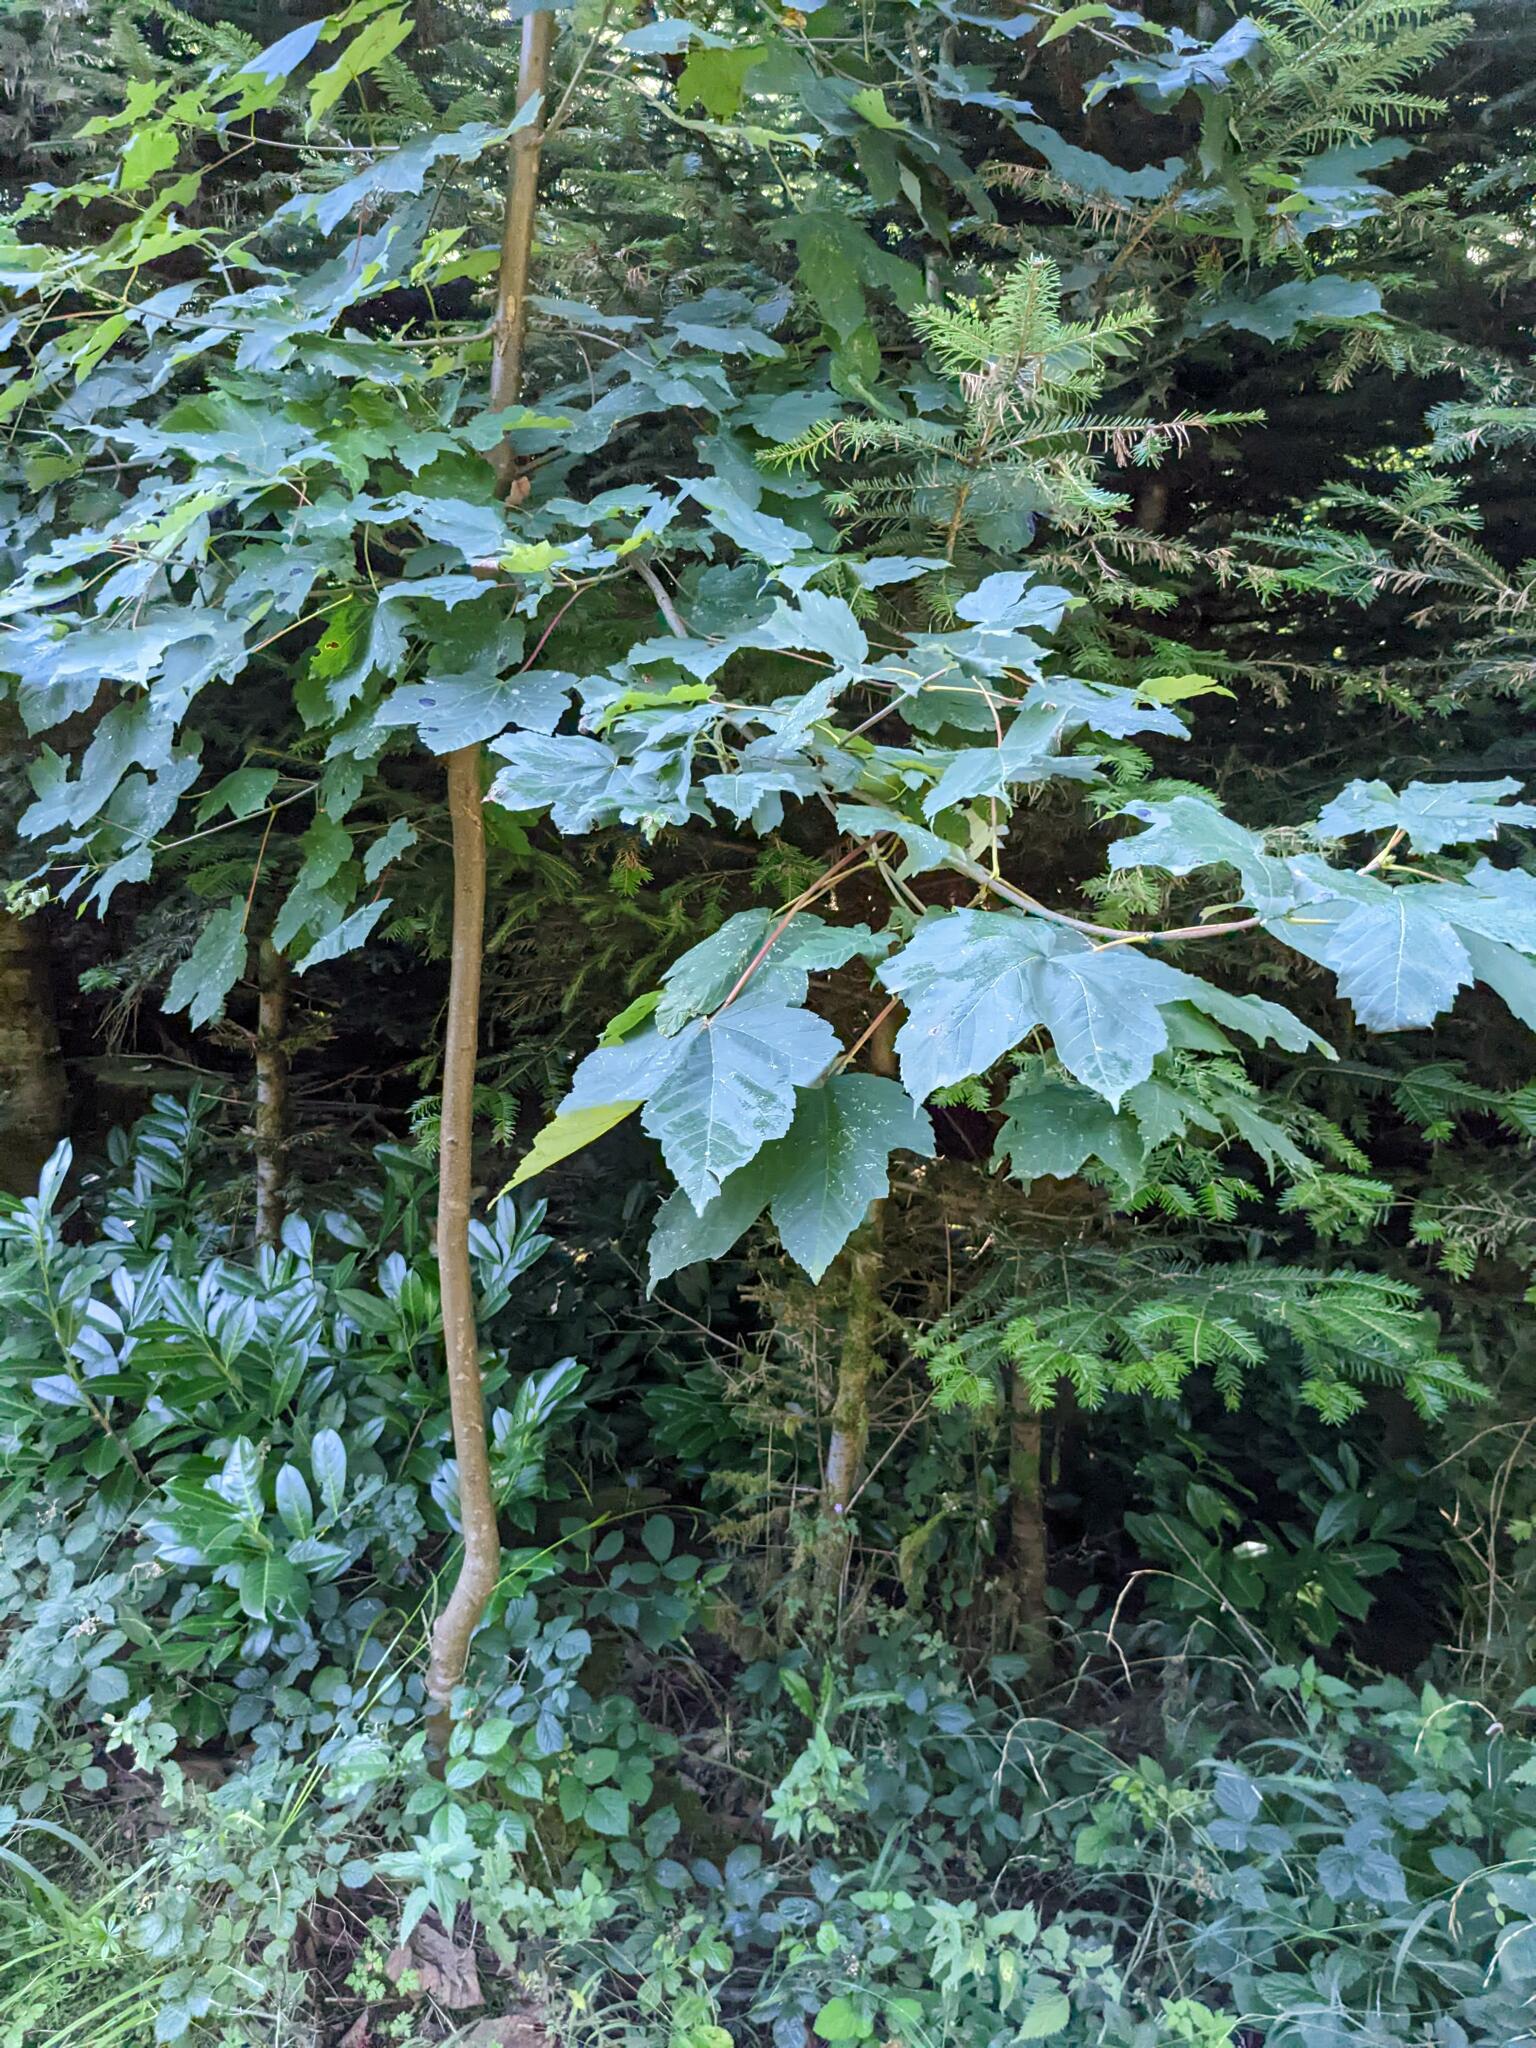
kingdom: Plantae
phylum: Tracheophyta
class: Magnoliopsida
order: Sapindales
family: Sapindaceae
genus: Acer
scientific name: Acer pseudoplatanus
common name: Sycamore
